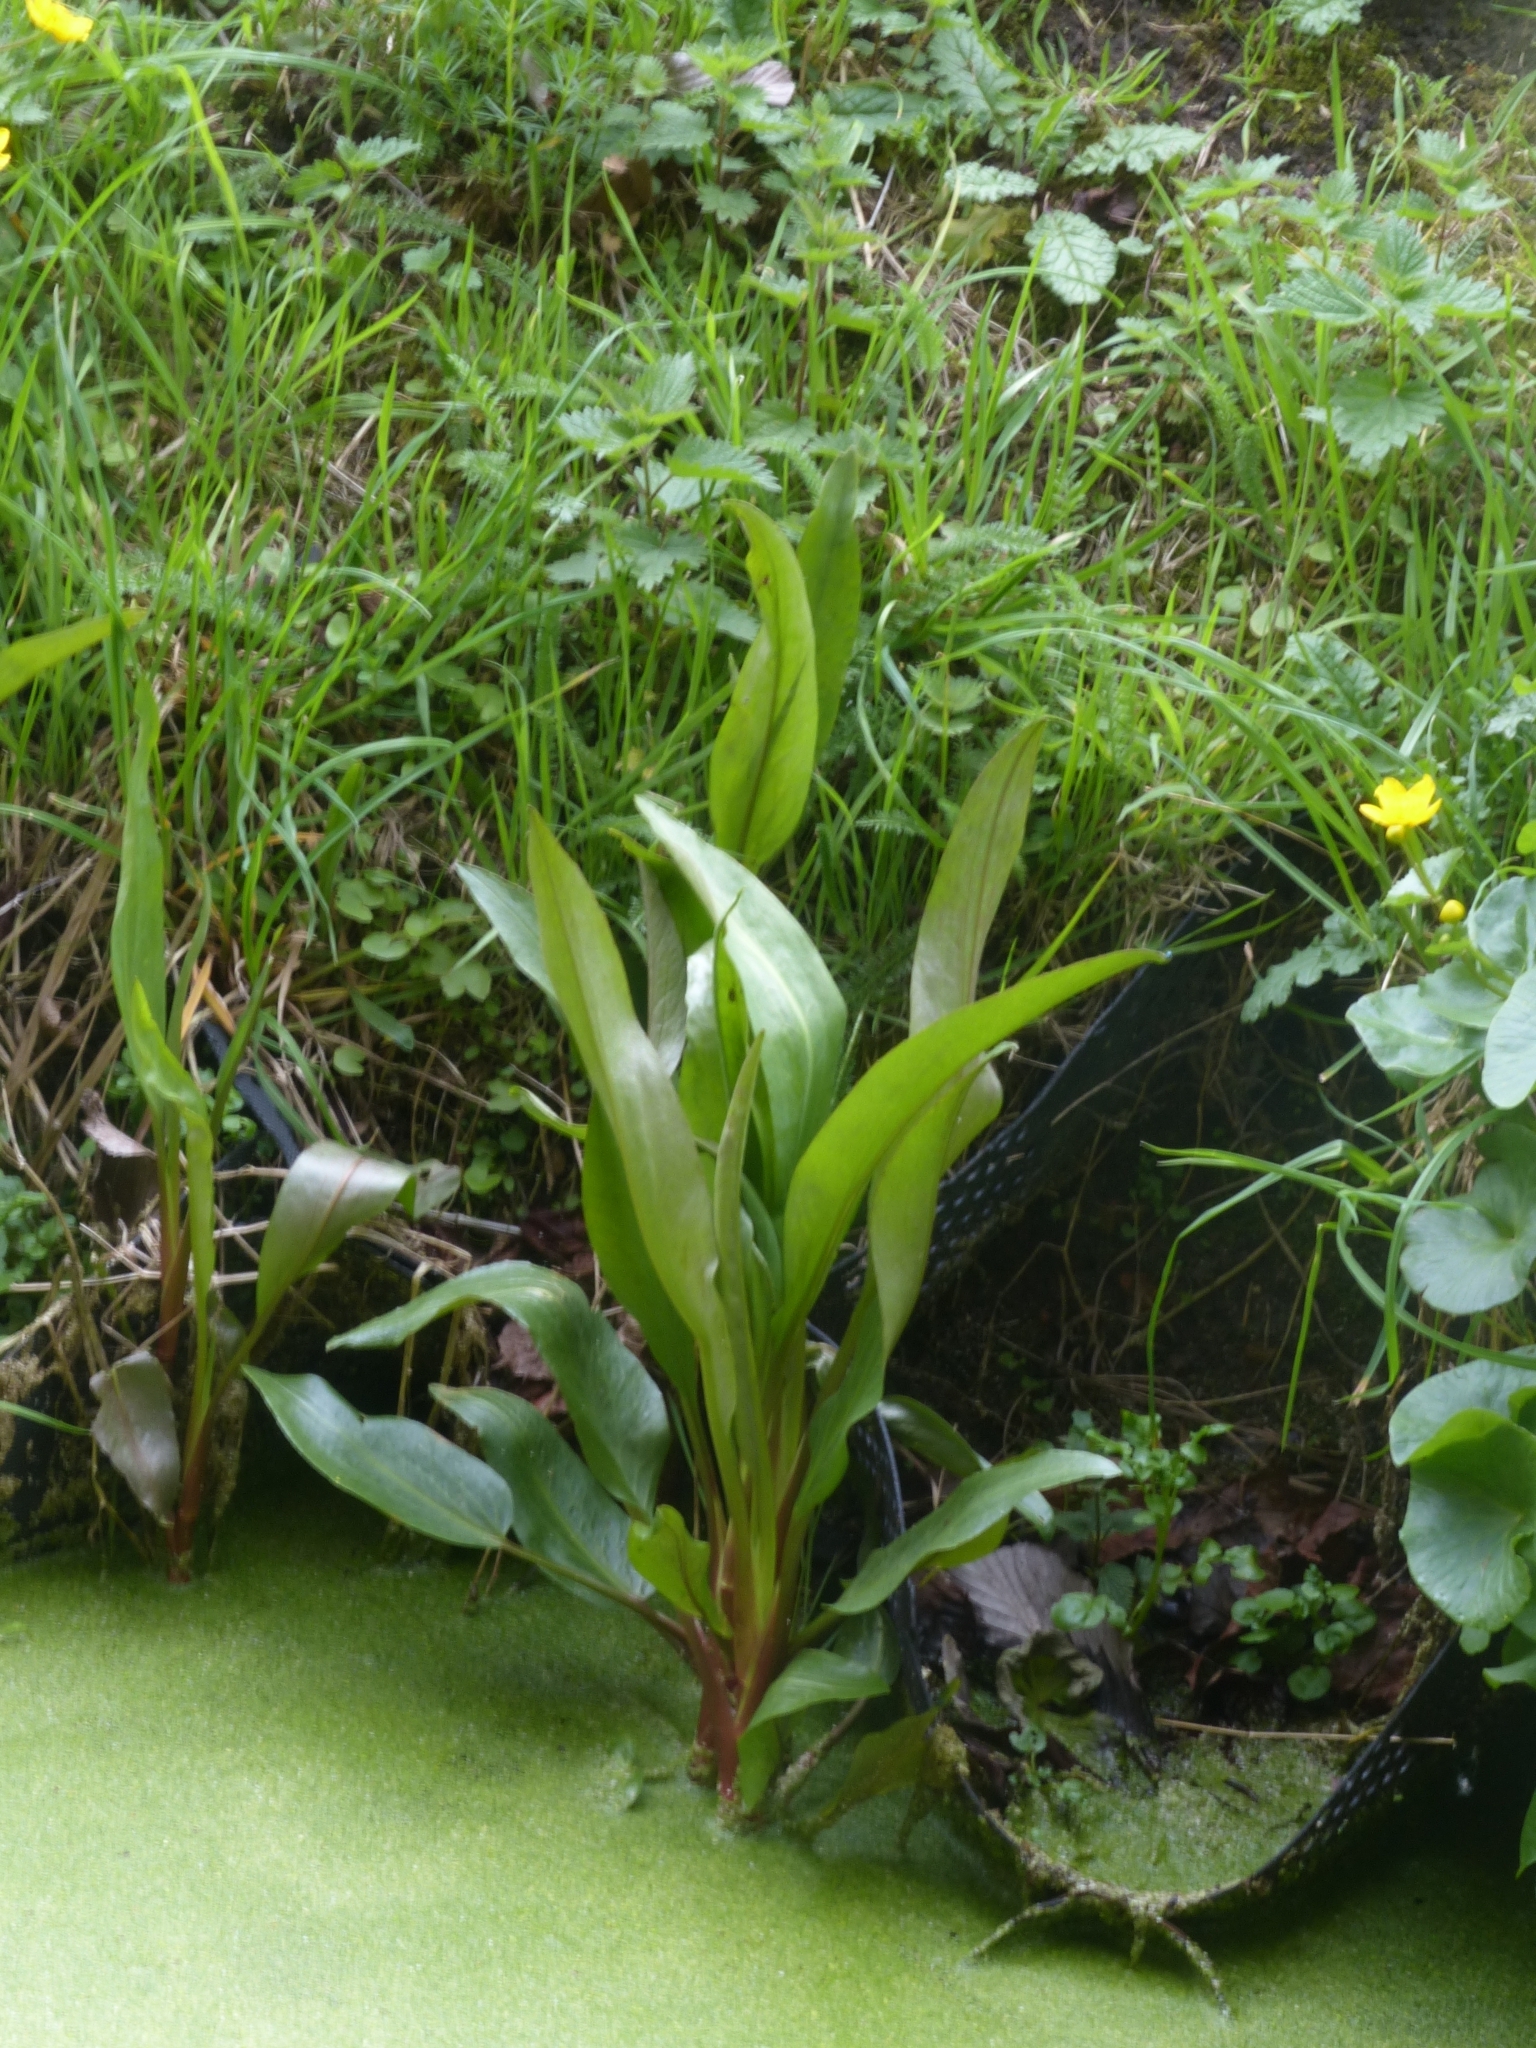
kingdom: Plantae
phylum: Tracheophyta
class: Magnoliopsida
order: Ranunculales
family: Ranunculaceae
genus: Ranunculus
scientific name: Ranunculus lingua
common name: Greater spearwort
